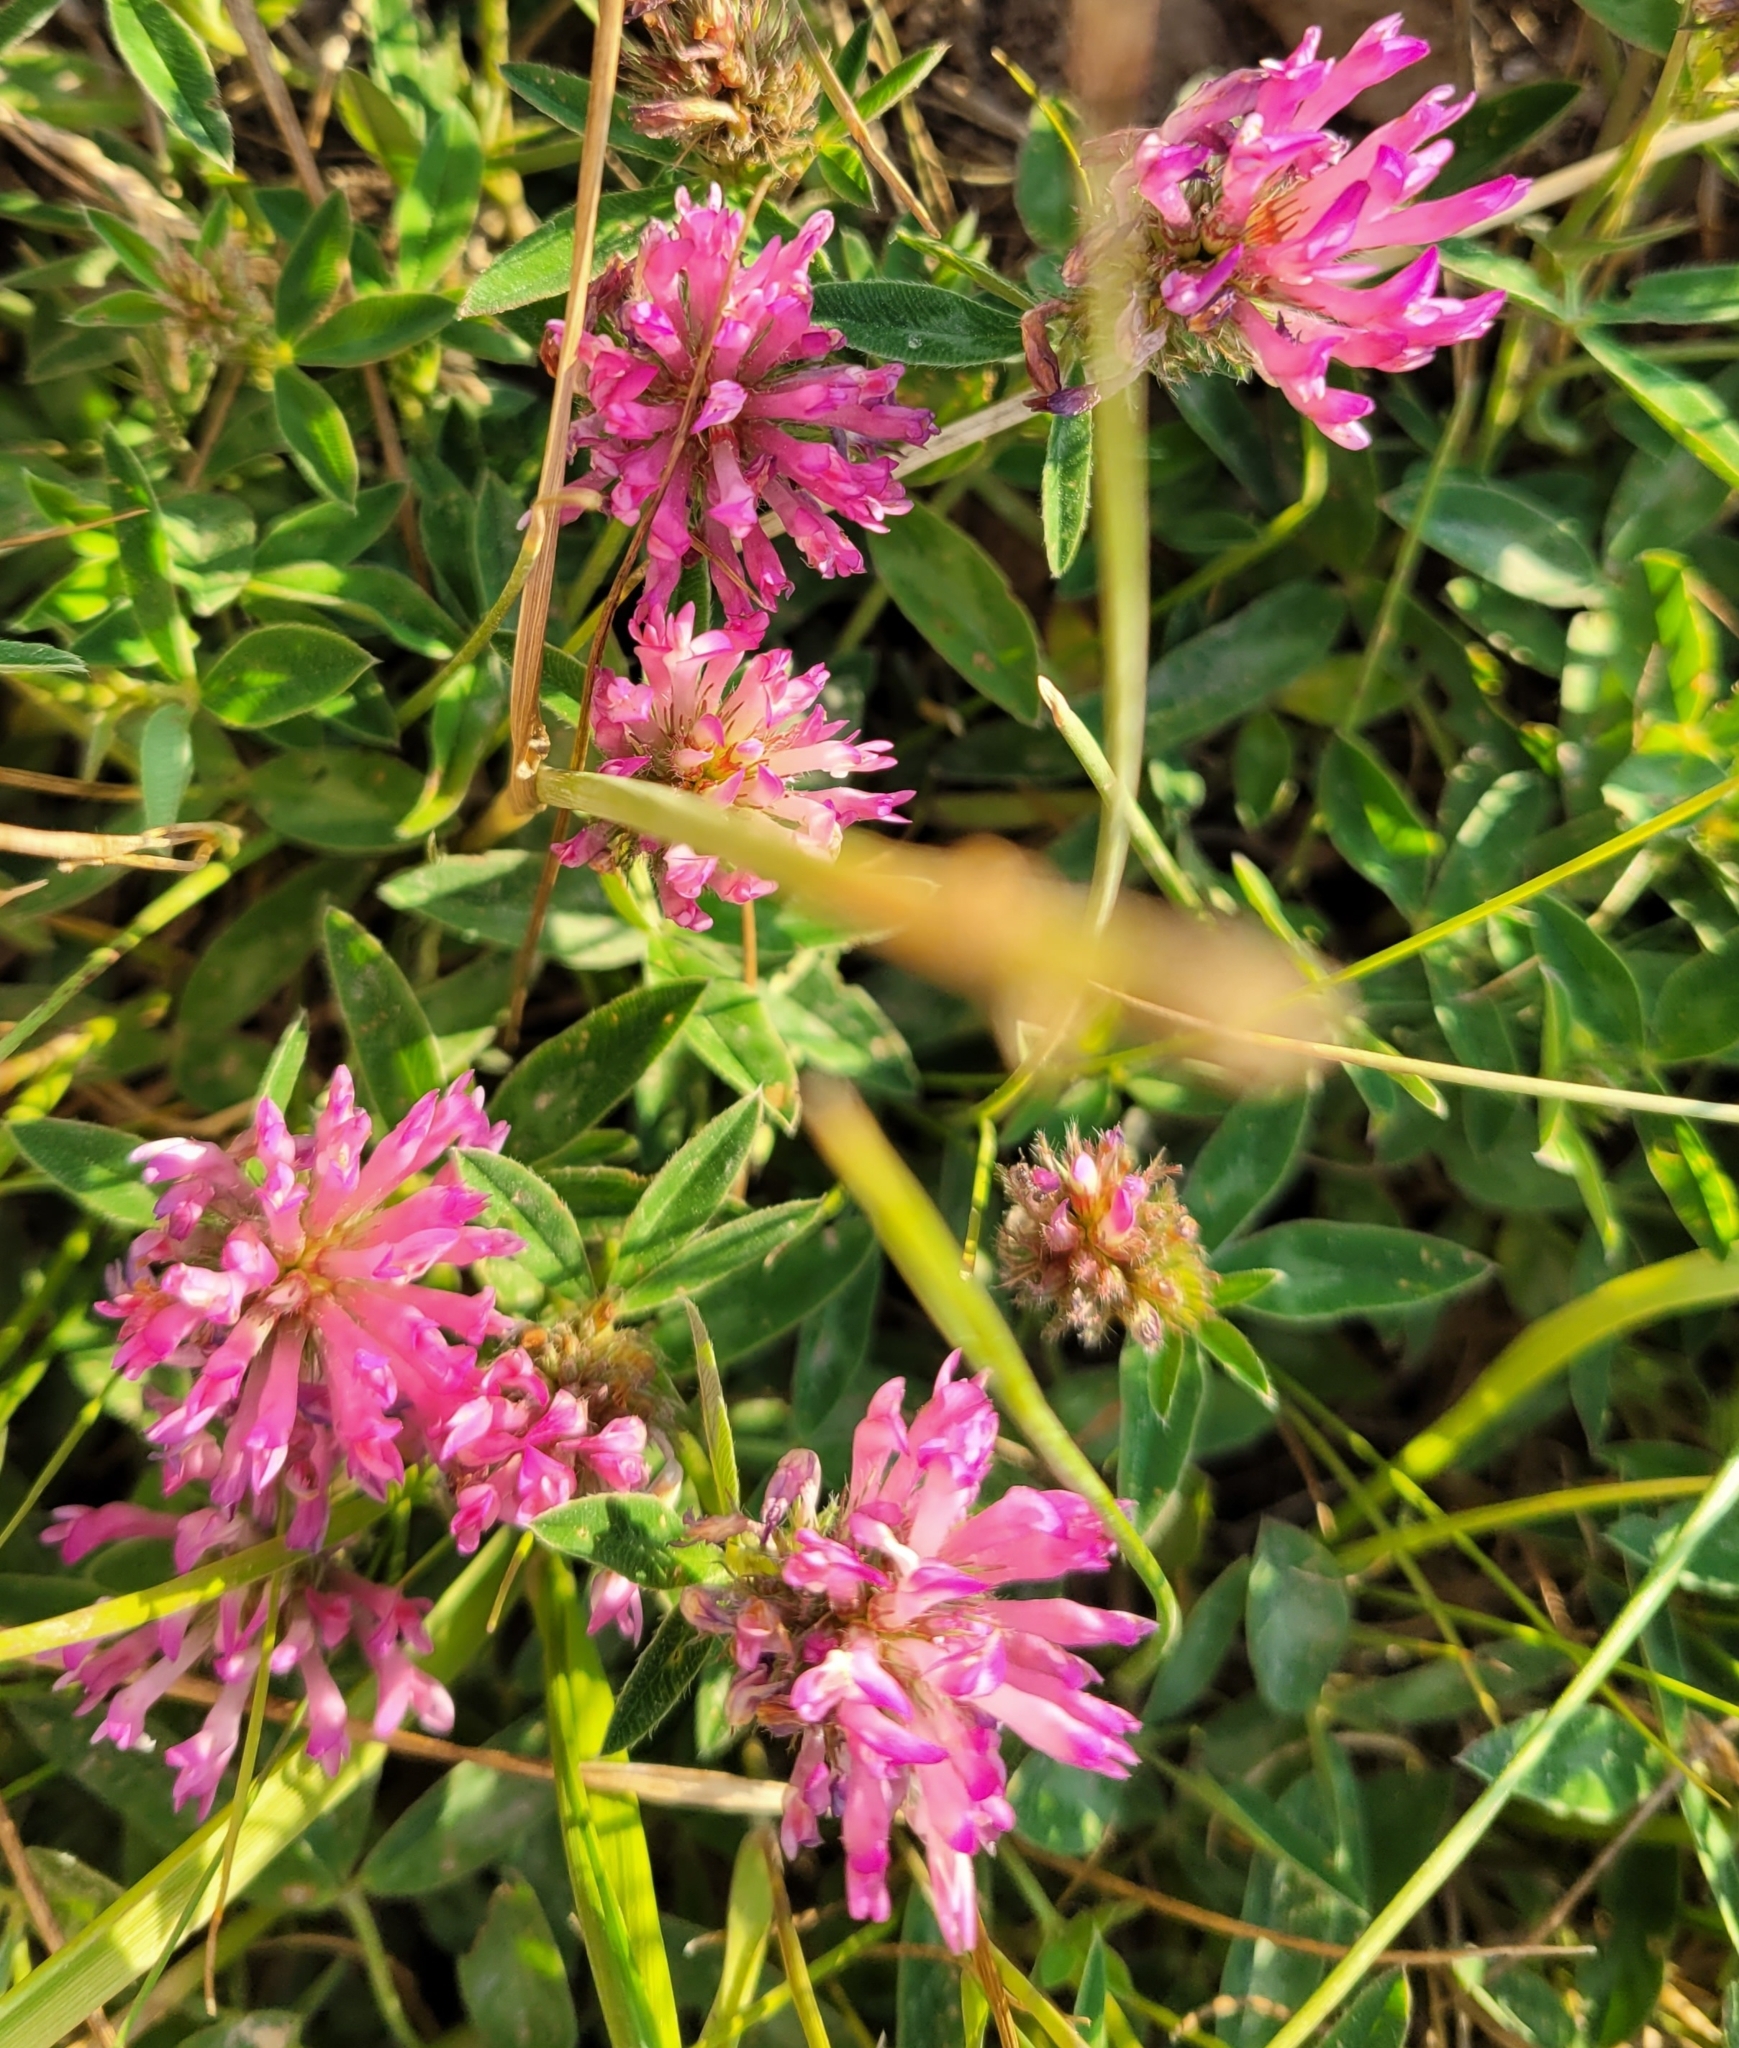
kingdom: Plantae
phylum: Tracheophyta
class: Magnoliopsida
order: Fabales
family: Fabaceae
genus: Trifolium
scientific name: Trifolium medium
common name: Zigzag clover
